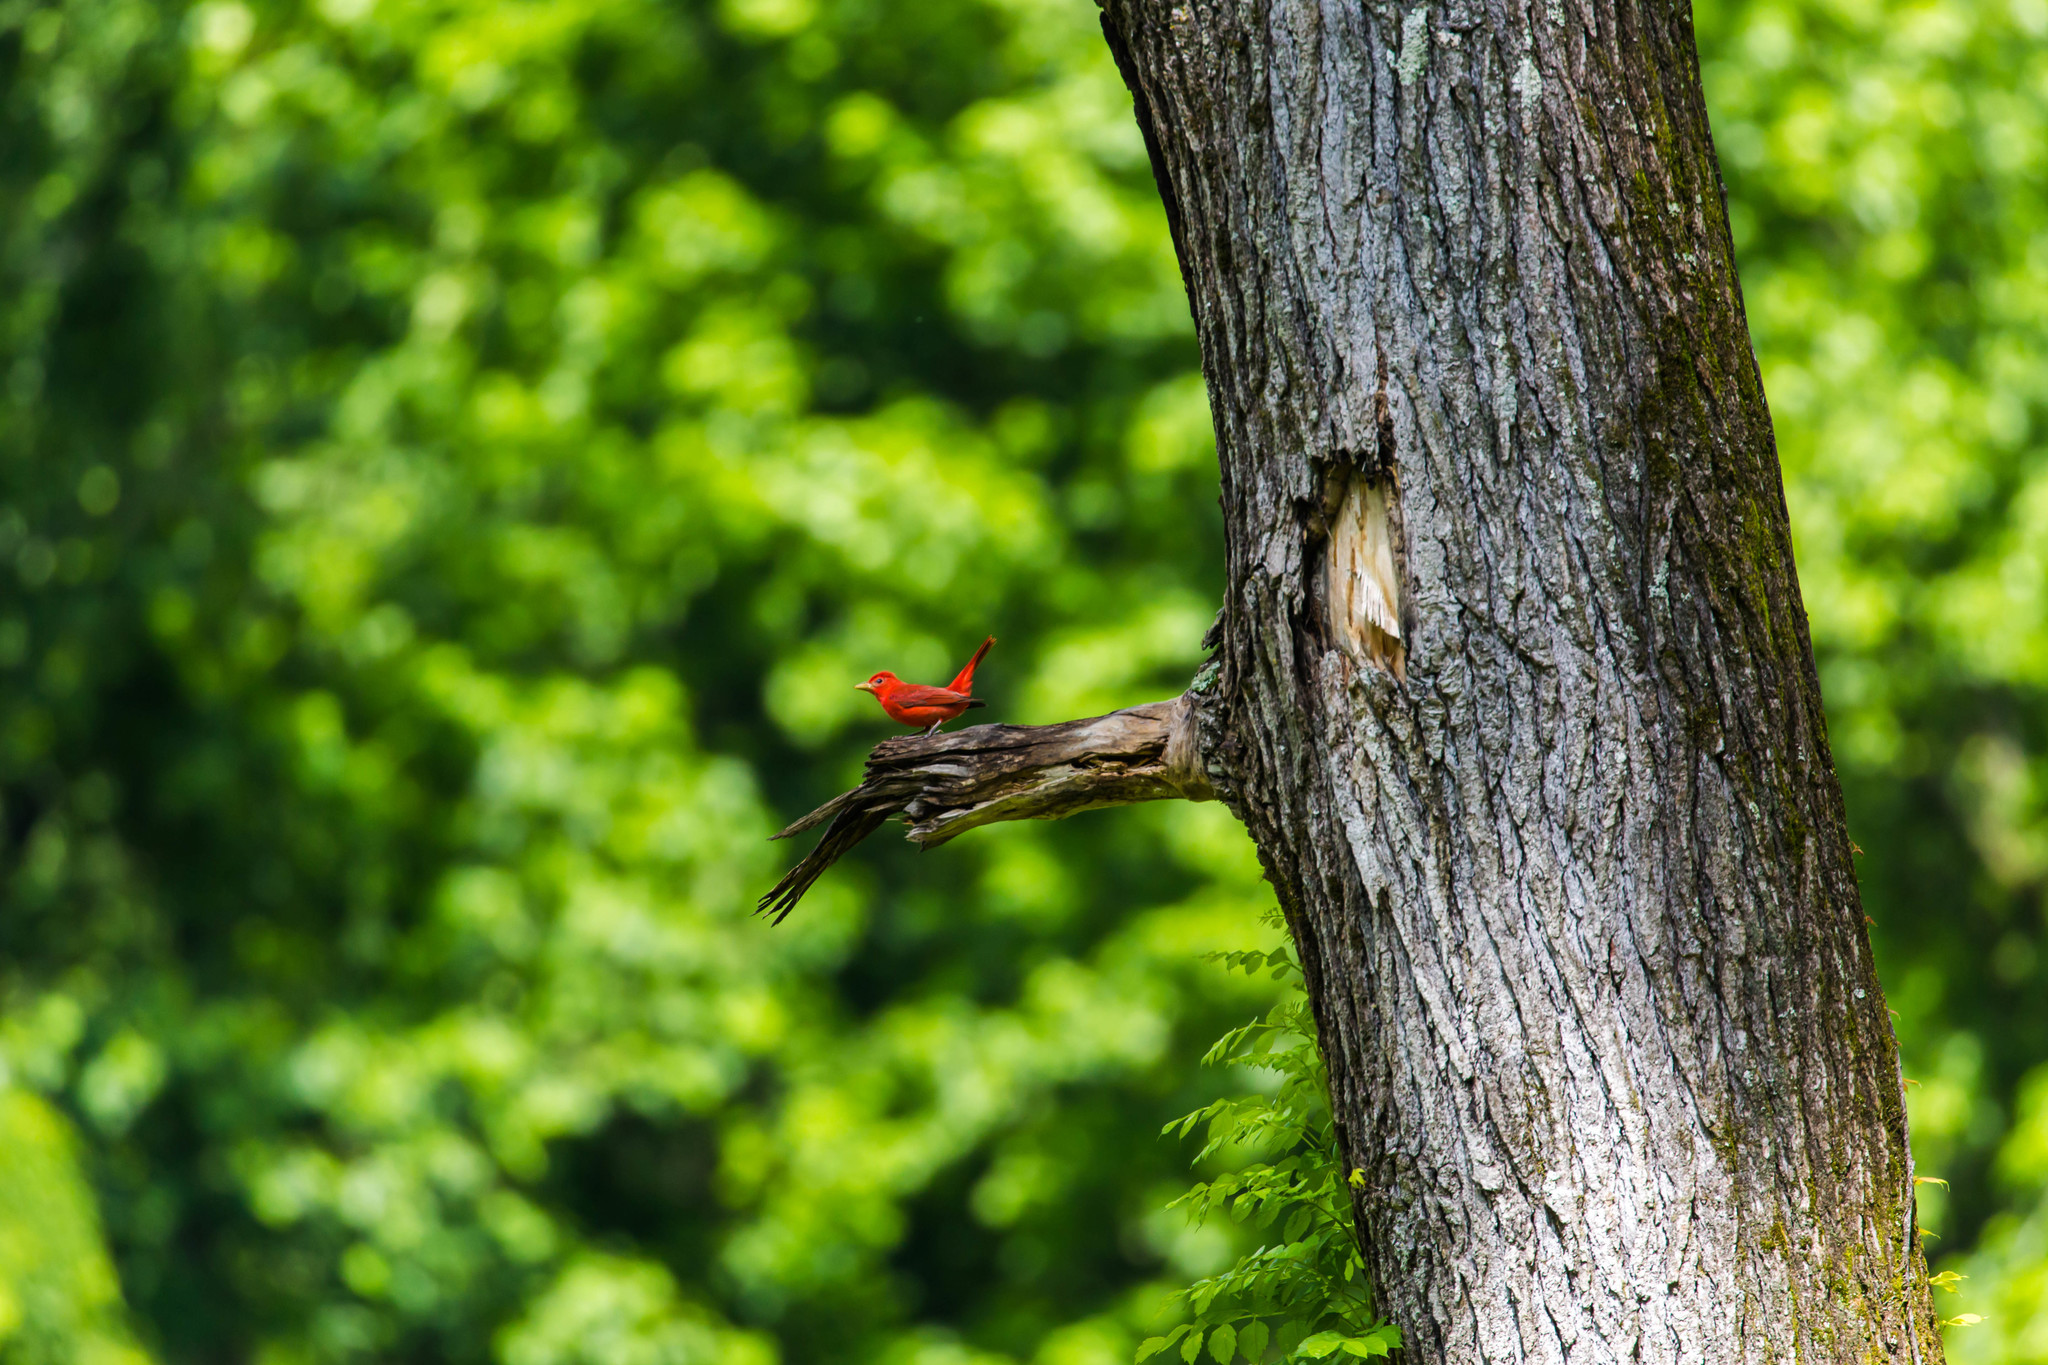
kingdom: Animalia
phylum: Chordata
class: Aves
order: Passeriformes
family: Cardinalidae
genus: Piranga
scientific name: Piranga rubra
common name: Summer tanager
